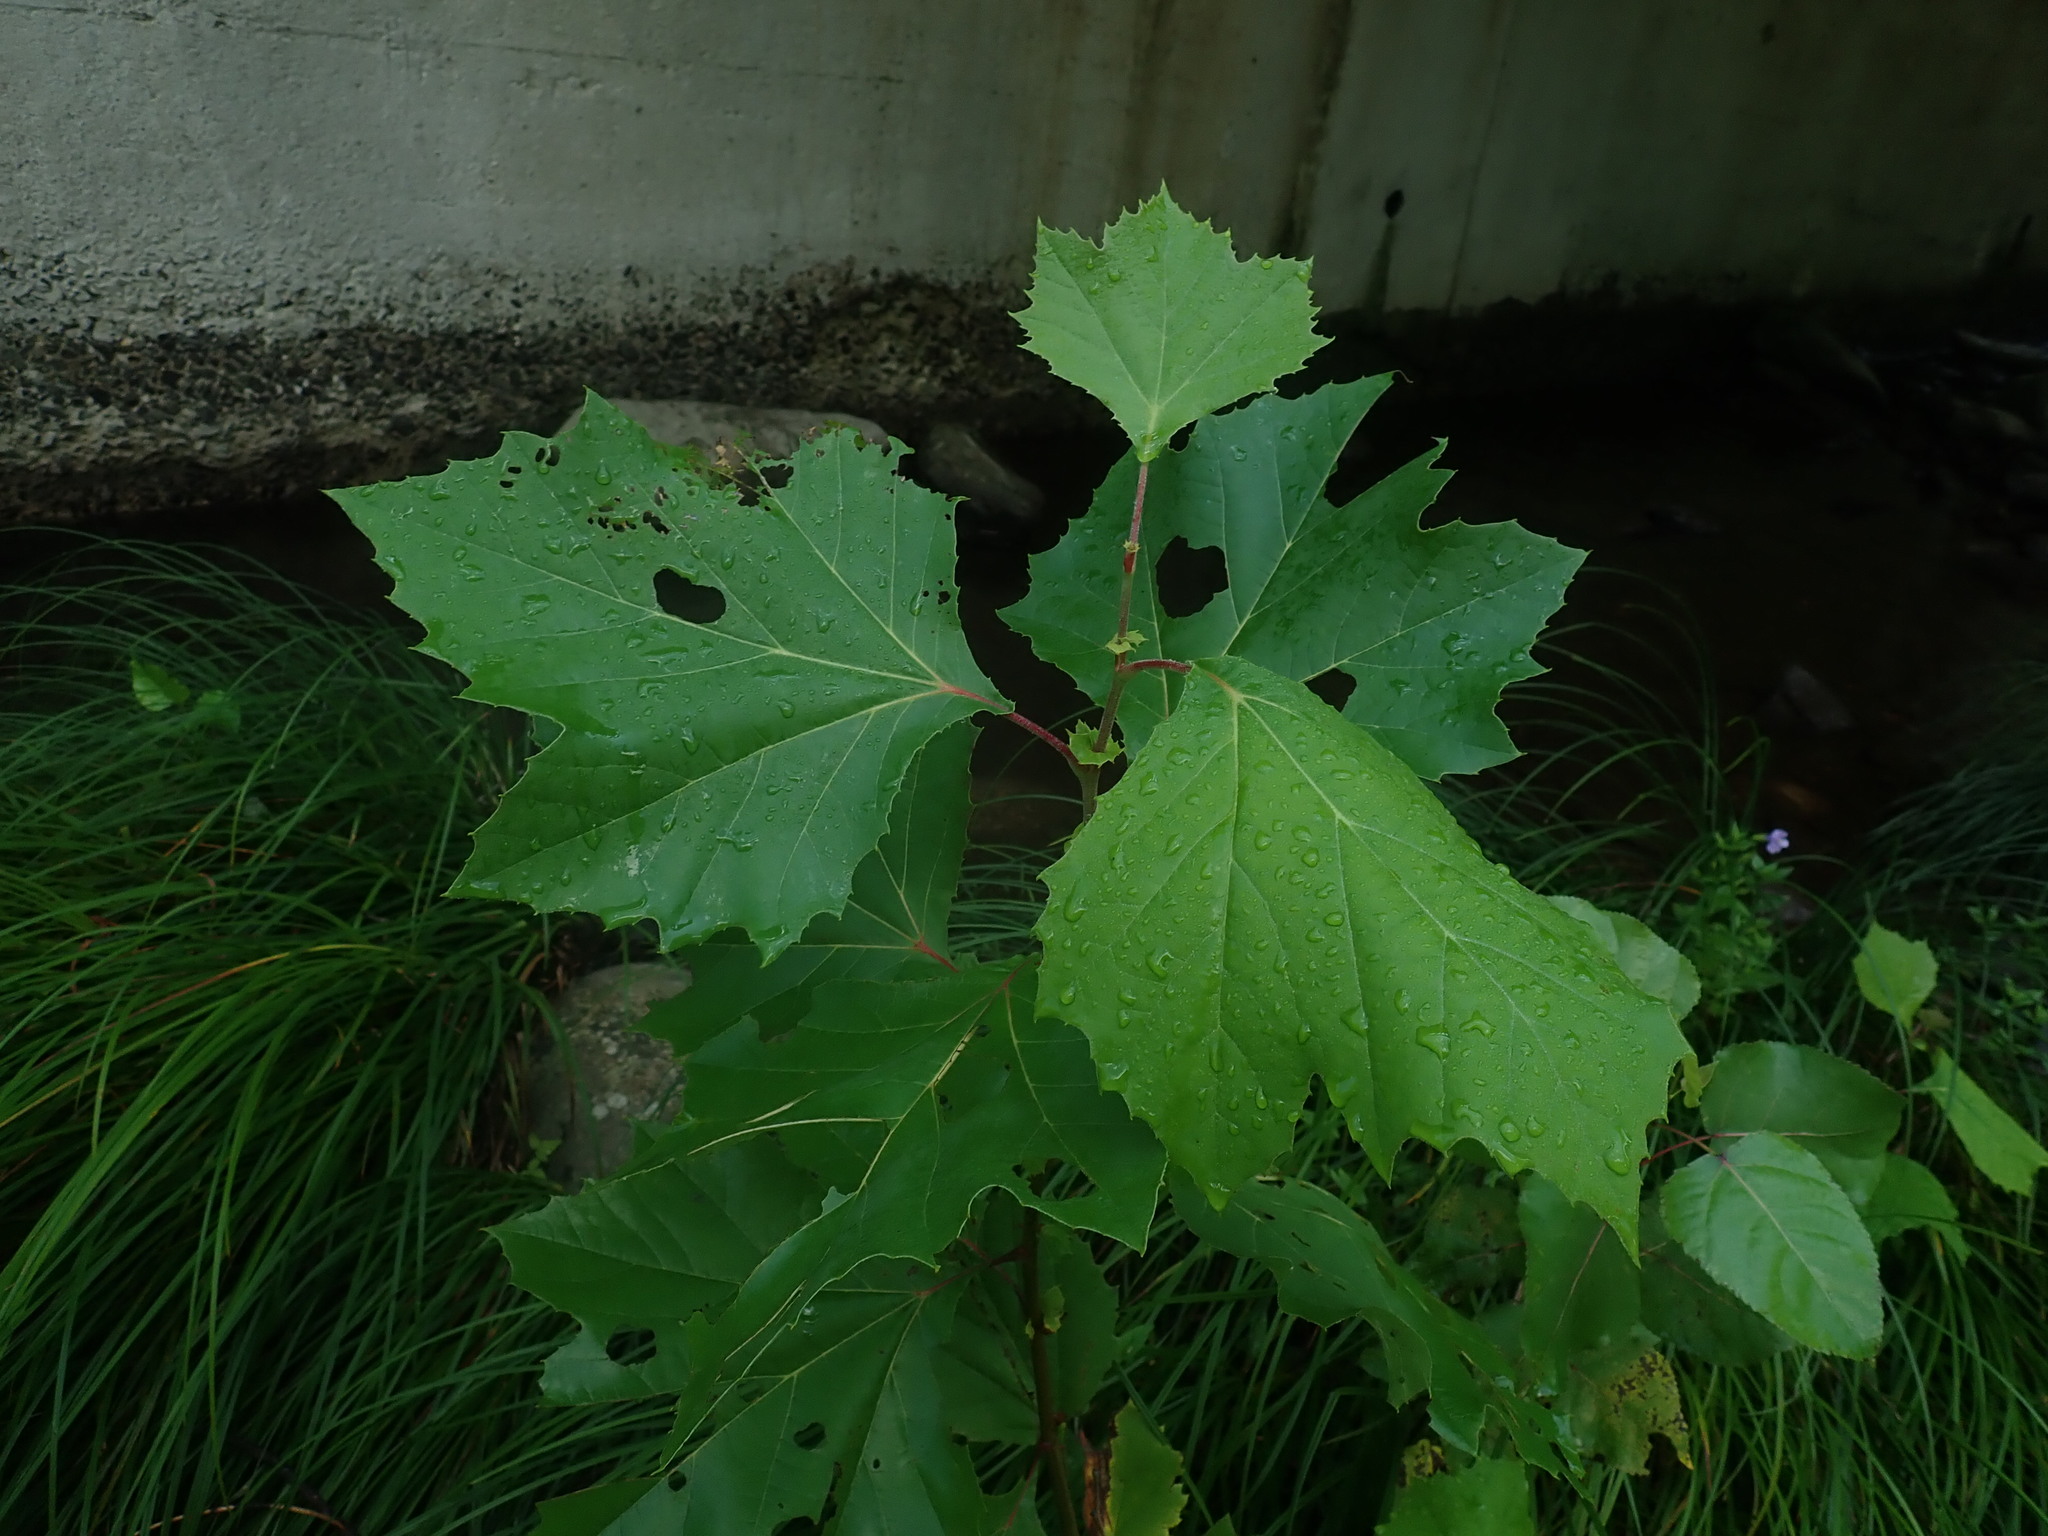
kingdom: Plantae
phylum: Tracheophyta
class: Magnoliopsida
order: Proteales
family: Platanaceae
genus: Platanus
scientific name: Platanus occidentalis
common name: American sycamore
